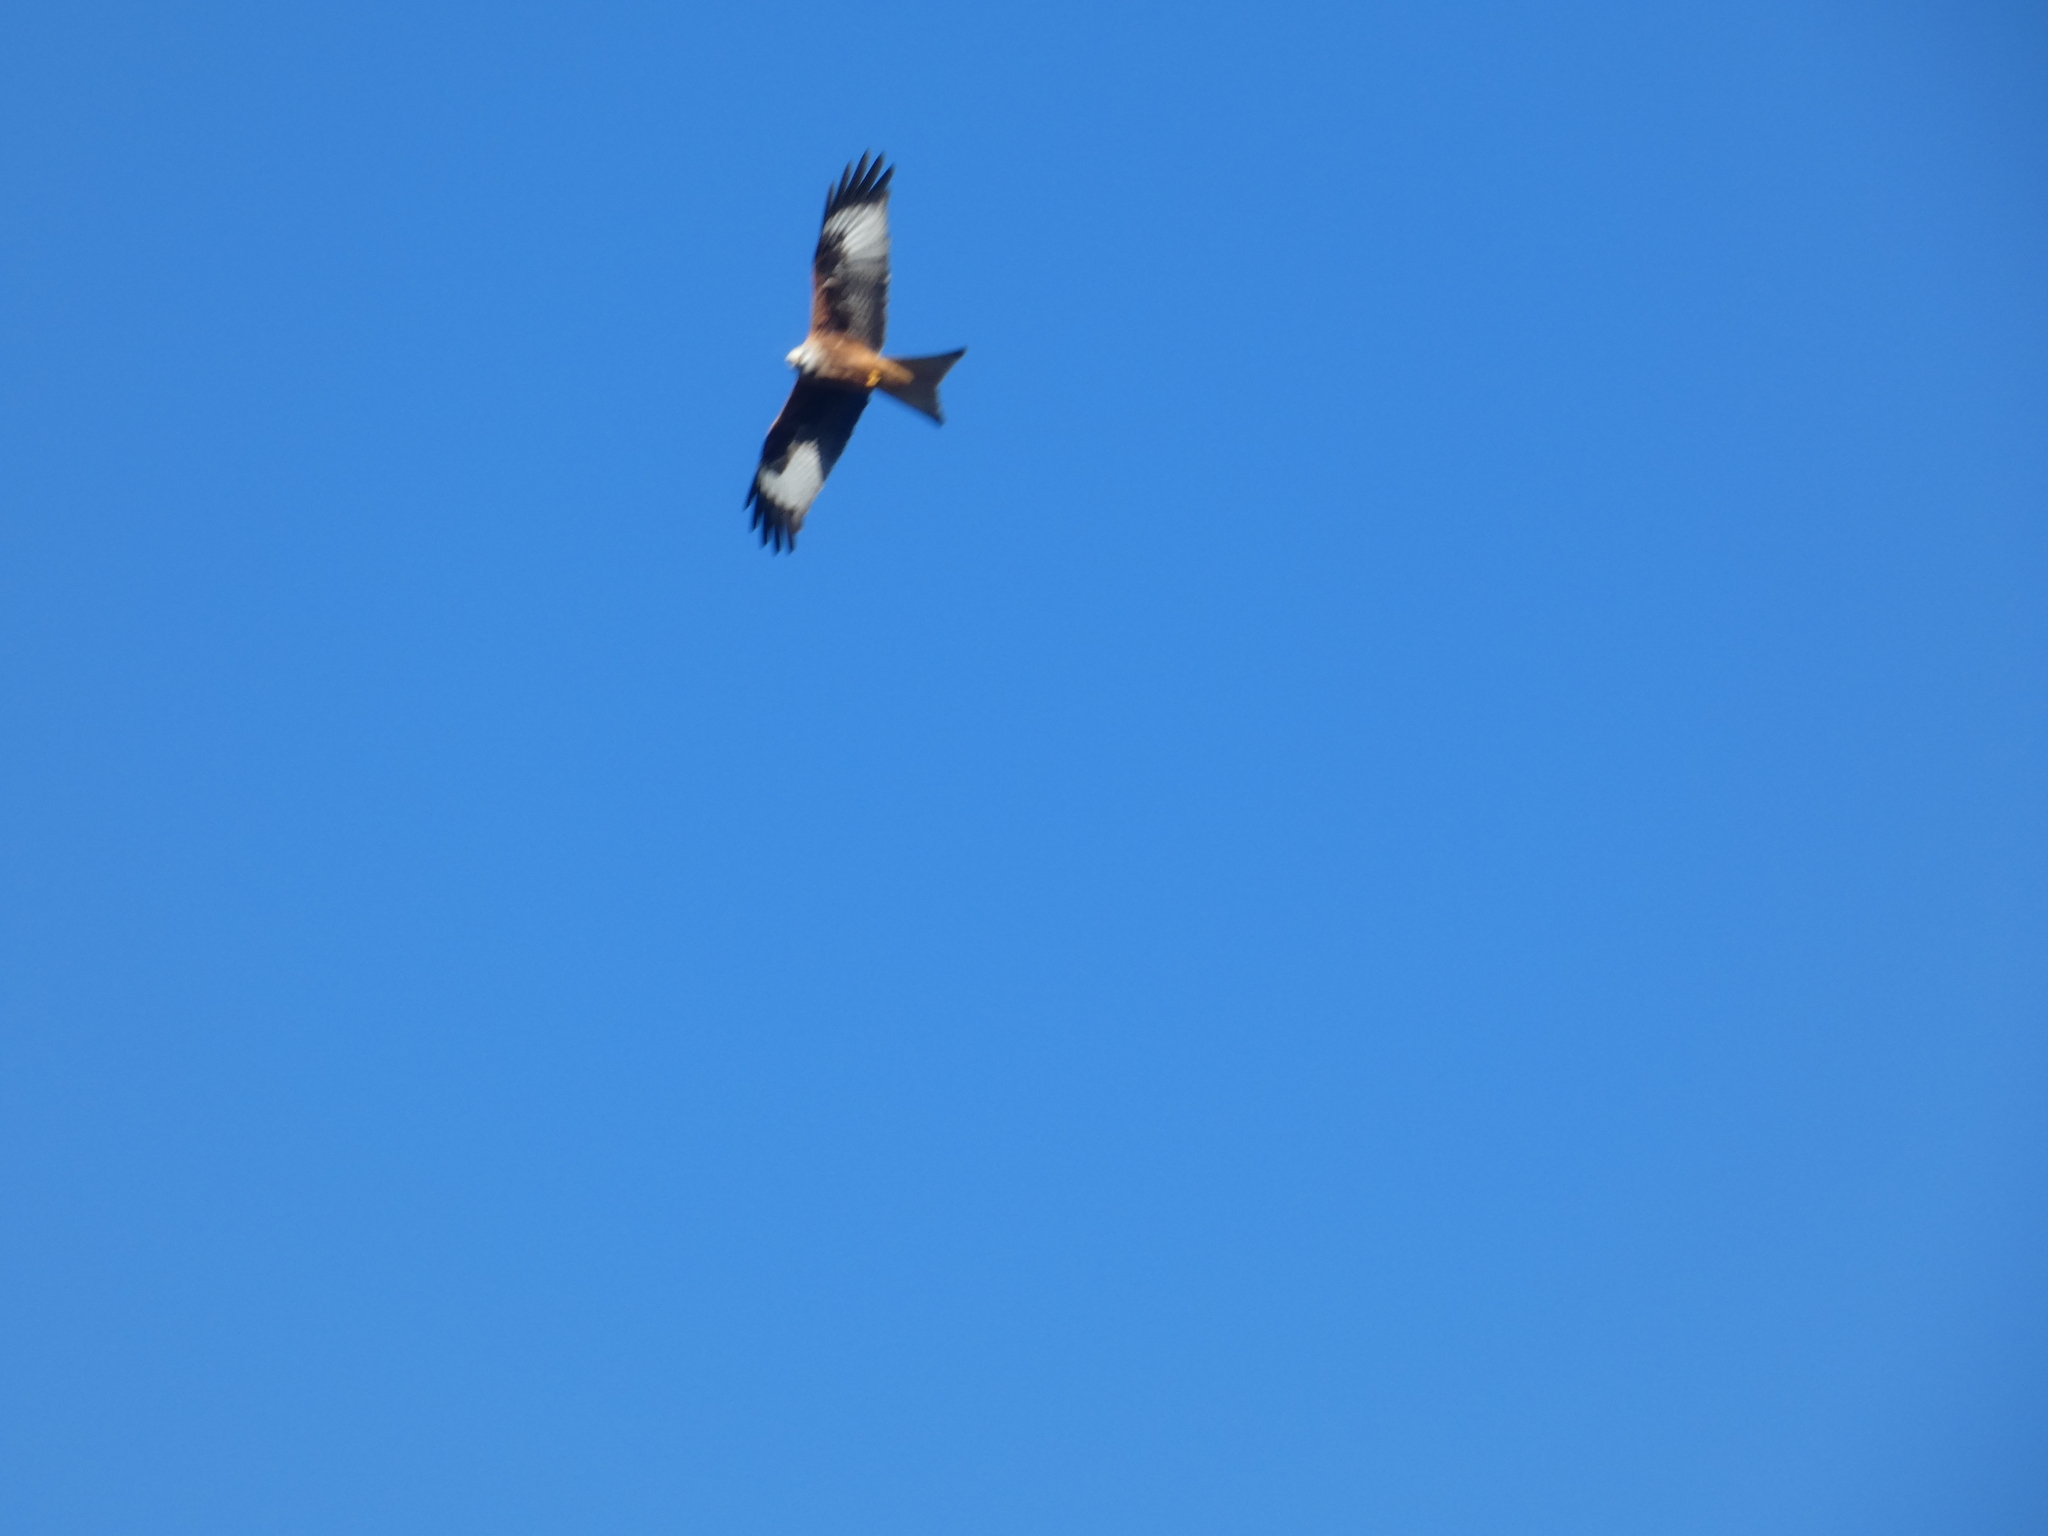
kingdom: Animalia
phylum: Chordata
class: Aves
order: Accipitriformes
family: Accipitridae
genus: Milvus
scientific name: Milvus milvus
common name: Red kite
